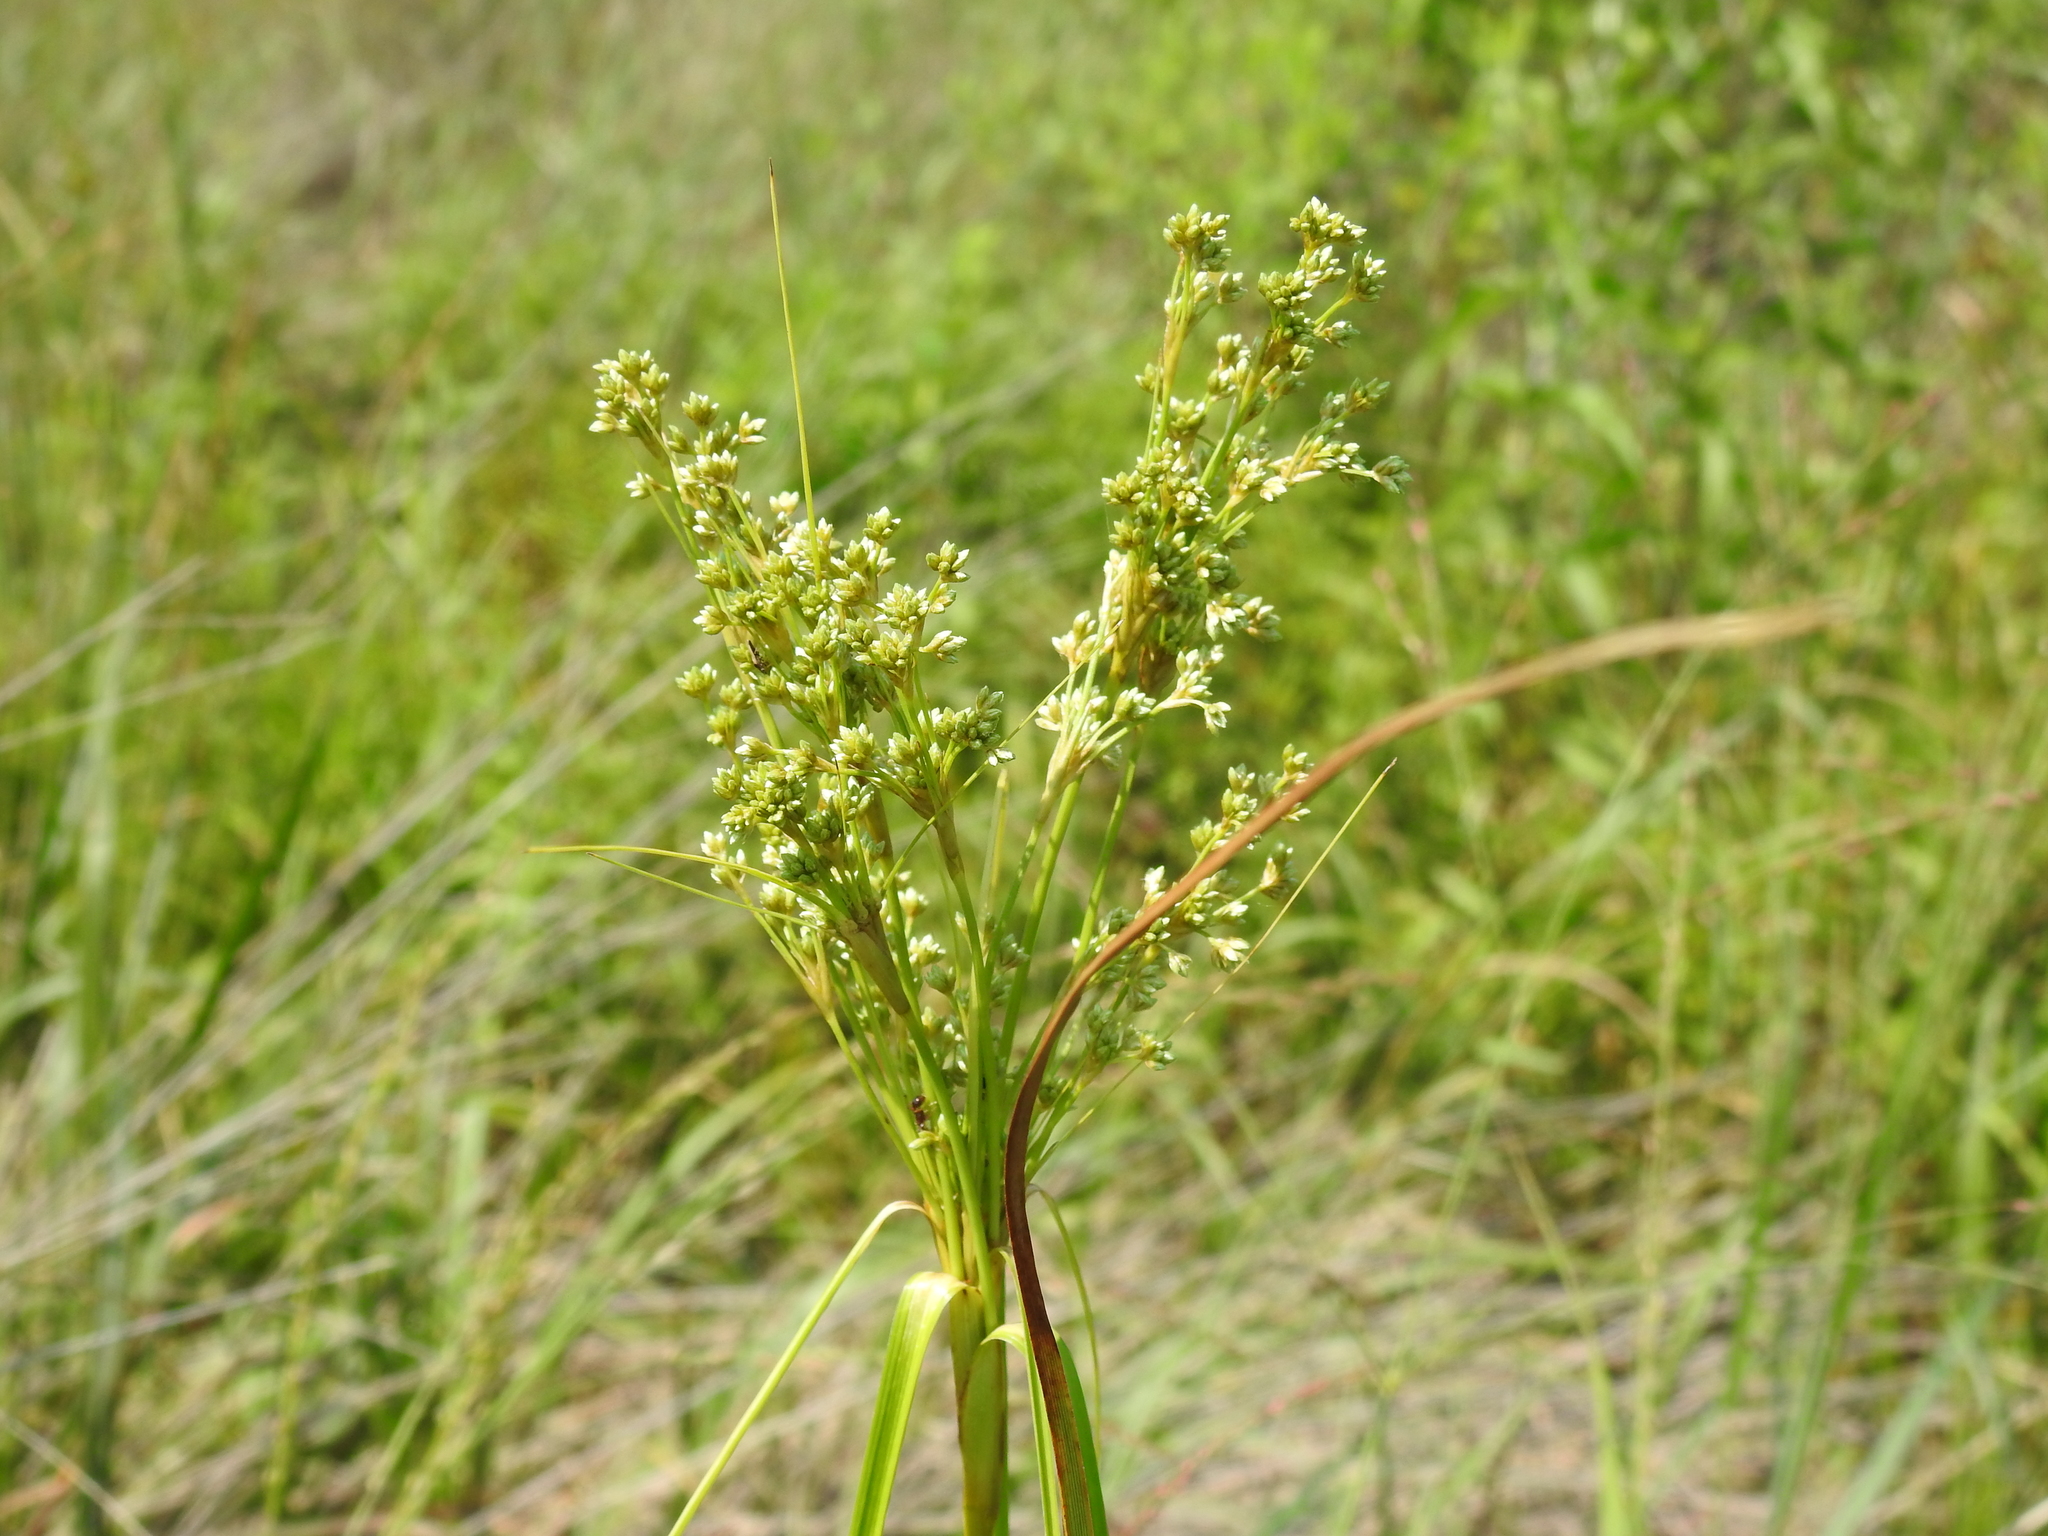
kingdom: Plantae
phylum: Tracheophyta
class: Liliopsida
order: Poales
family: Cyperaceae
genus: Scirpus
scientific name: Scirpus cyperinus
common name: Black-sheathed bulrush
